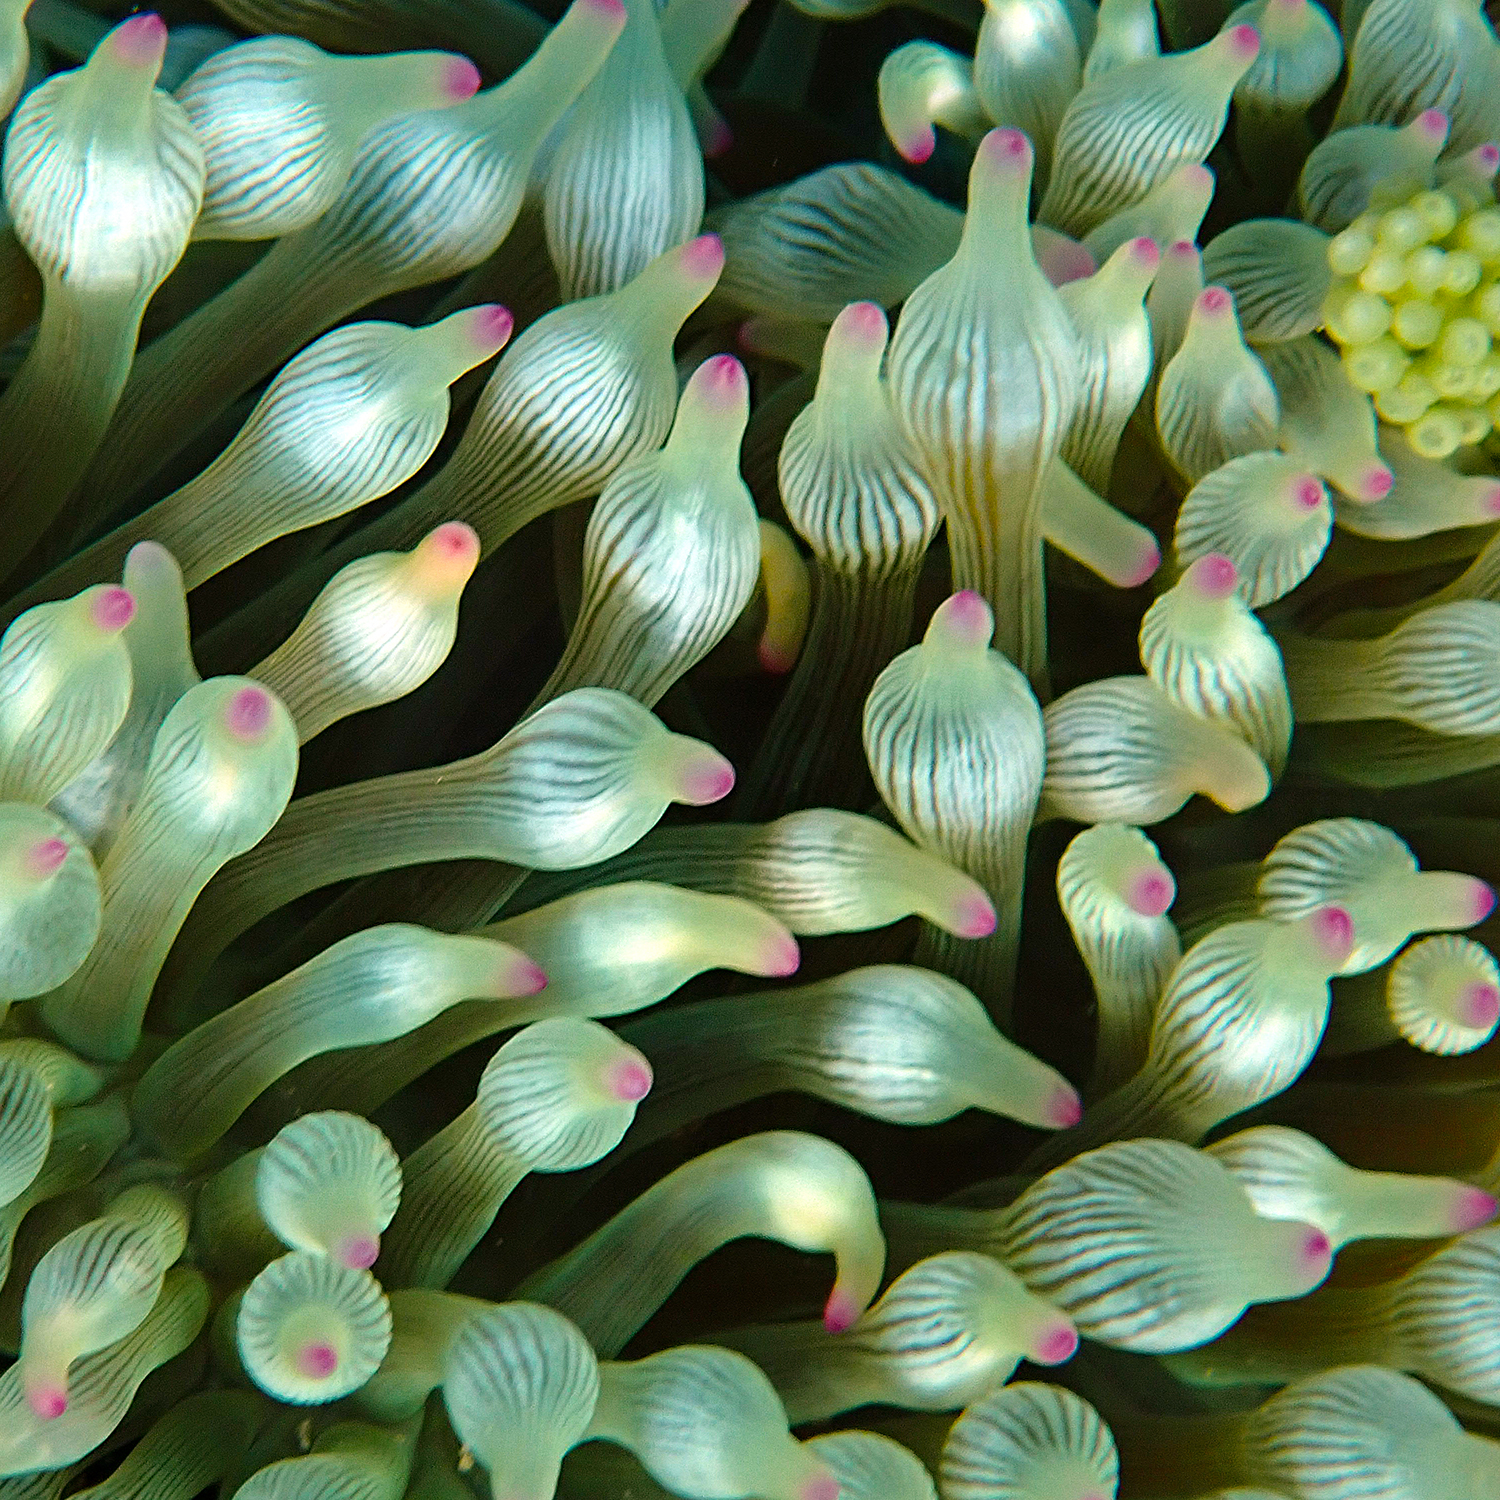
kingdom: Animalia
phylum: Cnidaria
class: Anthozoa
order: Actiniaria
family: Actiniidae
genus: Entacmaea
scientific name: Entacmaea quadricolor
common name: Bulb tentacle sea anemone
